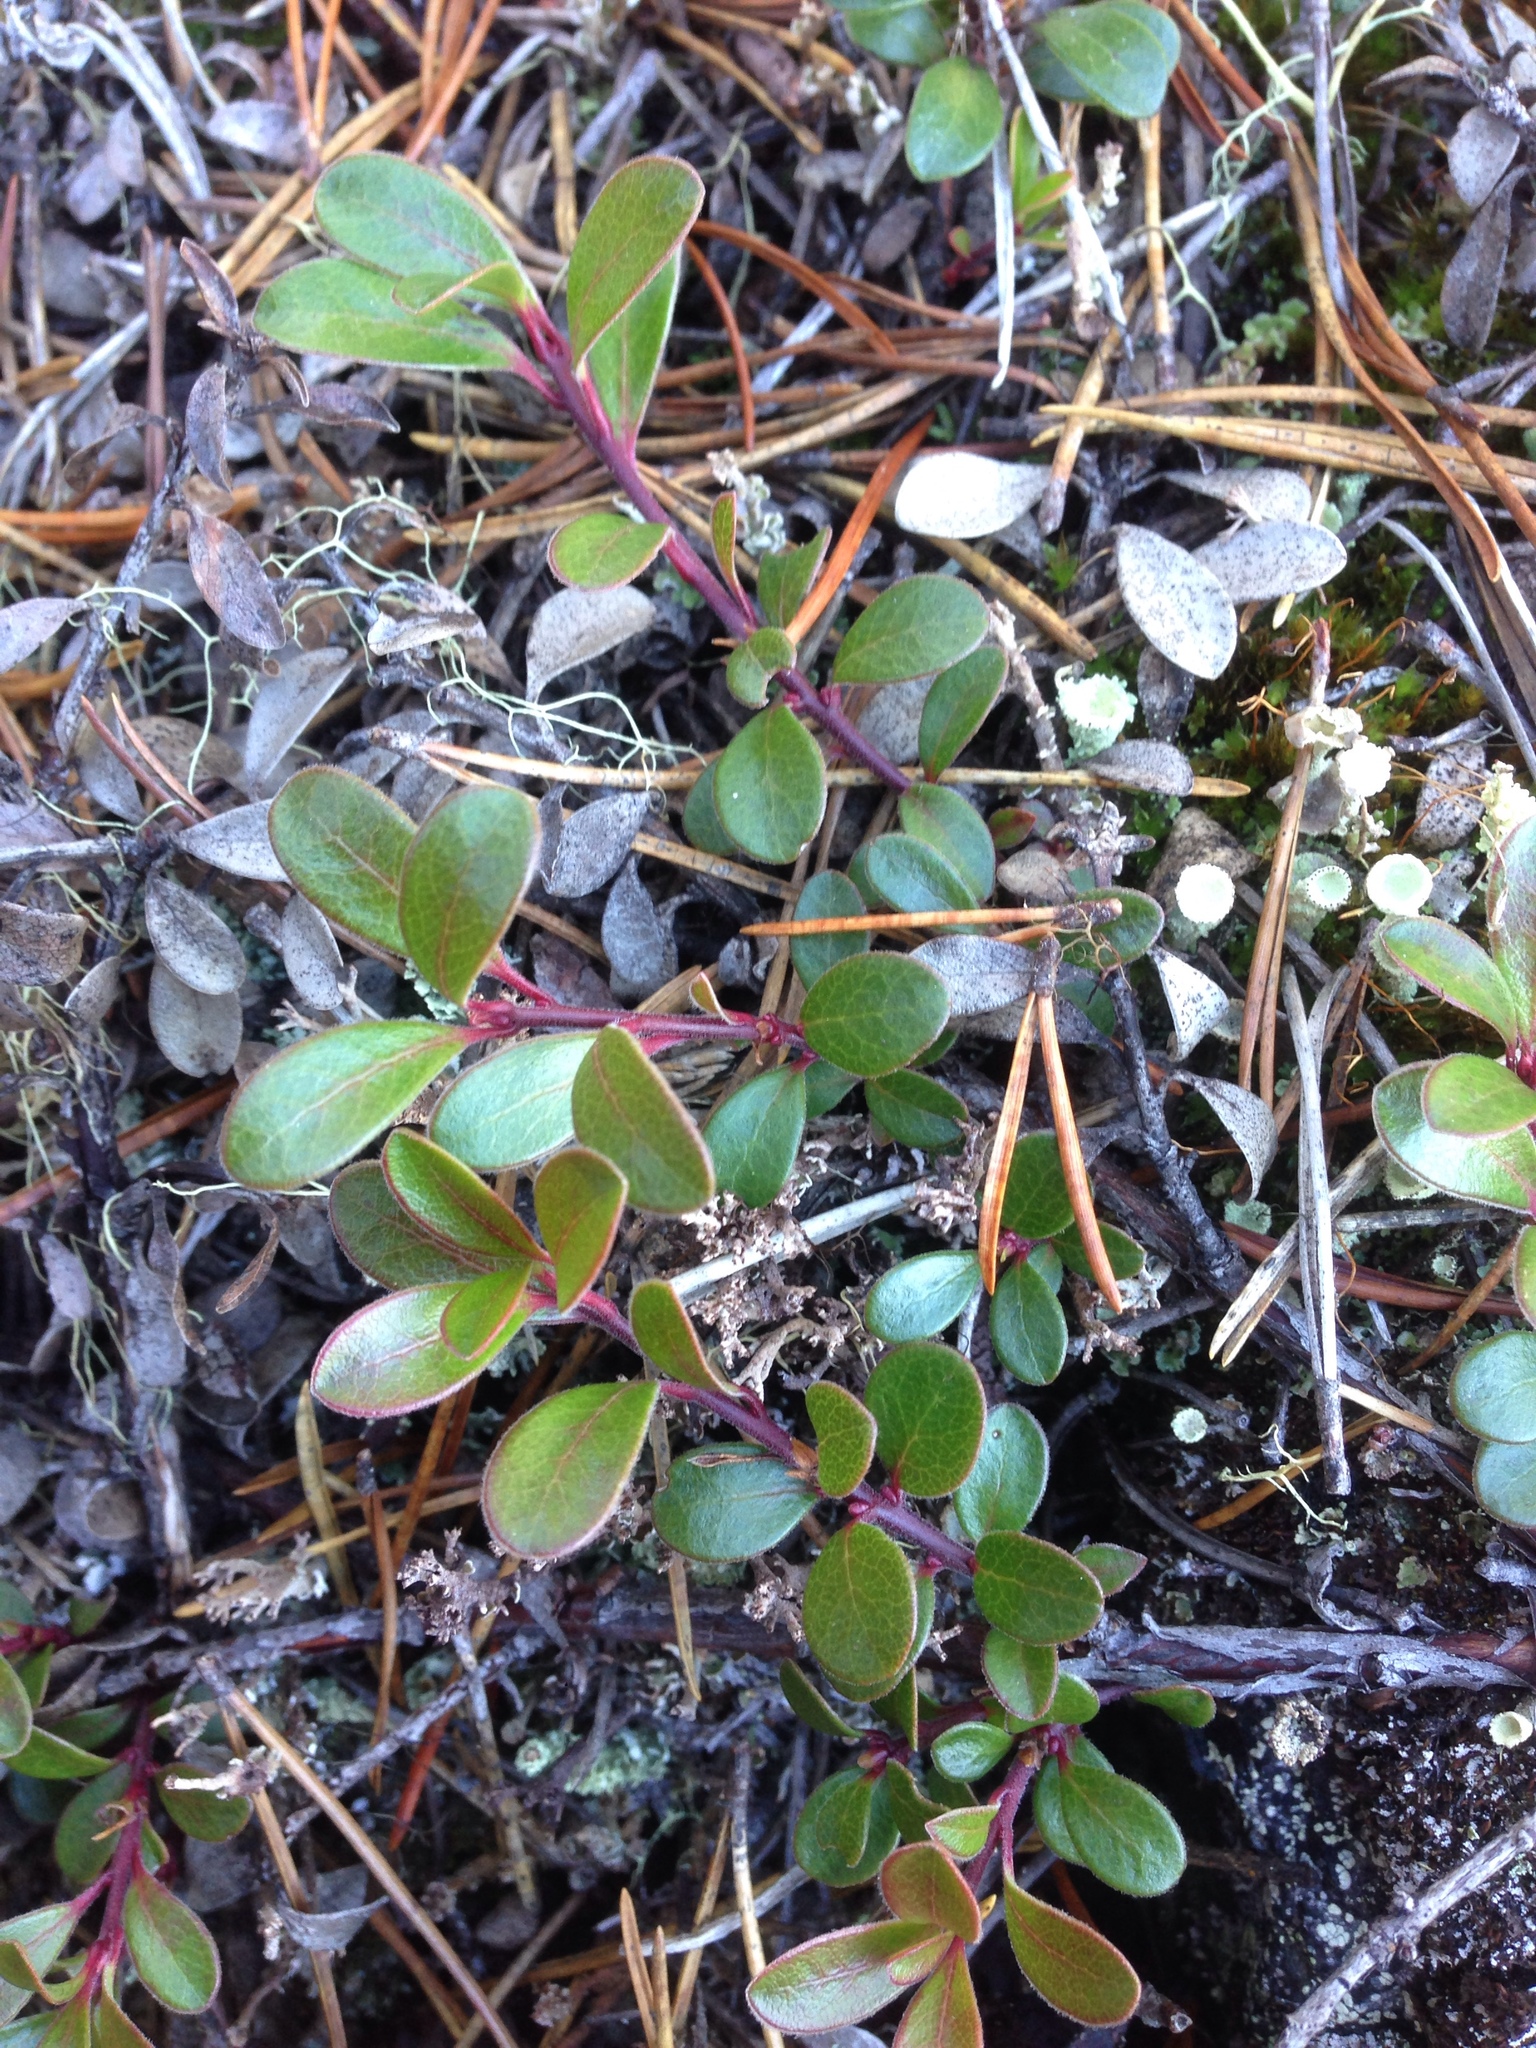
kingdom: Plantae
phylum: Tracheophyta
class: Magnoliopsida
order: Ericales
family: Ericaceae
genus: Arctostaphylos
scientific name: Arctostaphylos uva-ursi
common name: Bearberry
